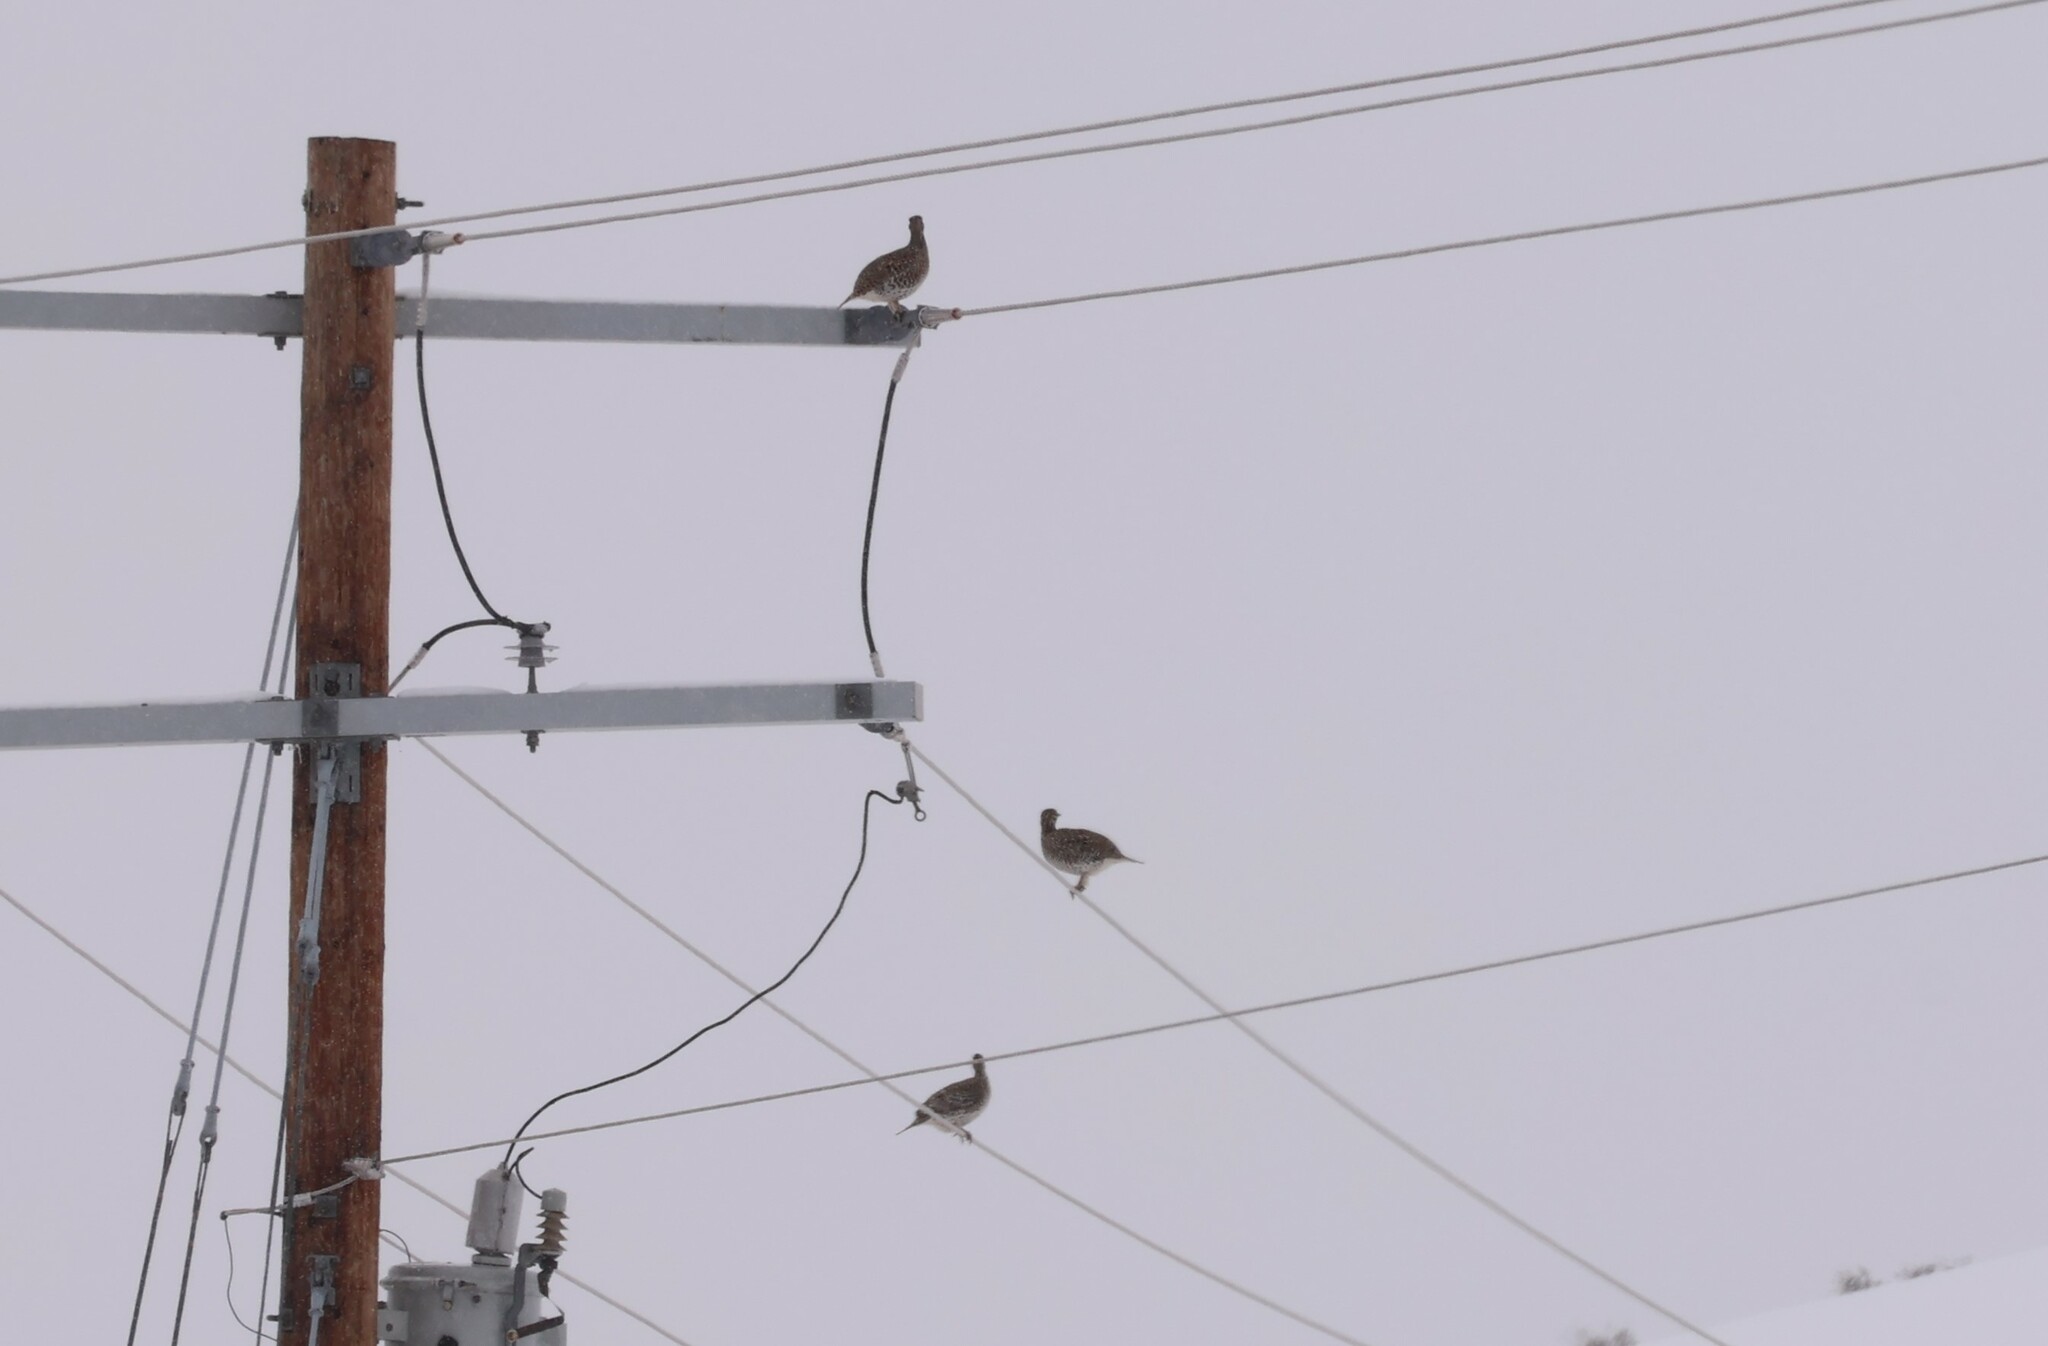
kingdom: Animalia
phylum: Chordata
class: Aves
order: Galliformes
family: Phasianidae
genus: Tympanuchus
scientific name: Tympanuchus phasianellus
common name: Sharp-tailed grouse
